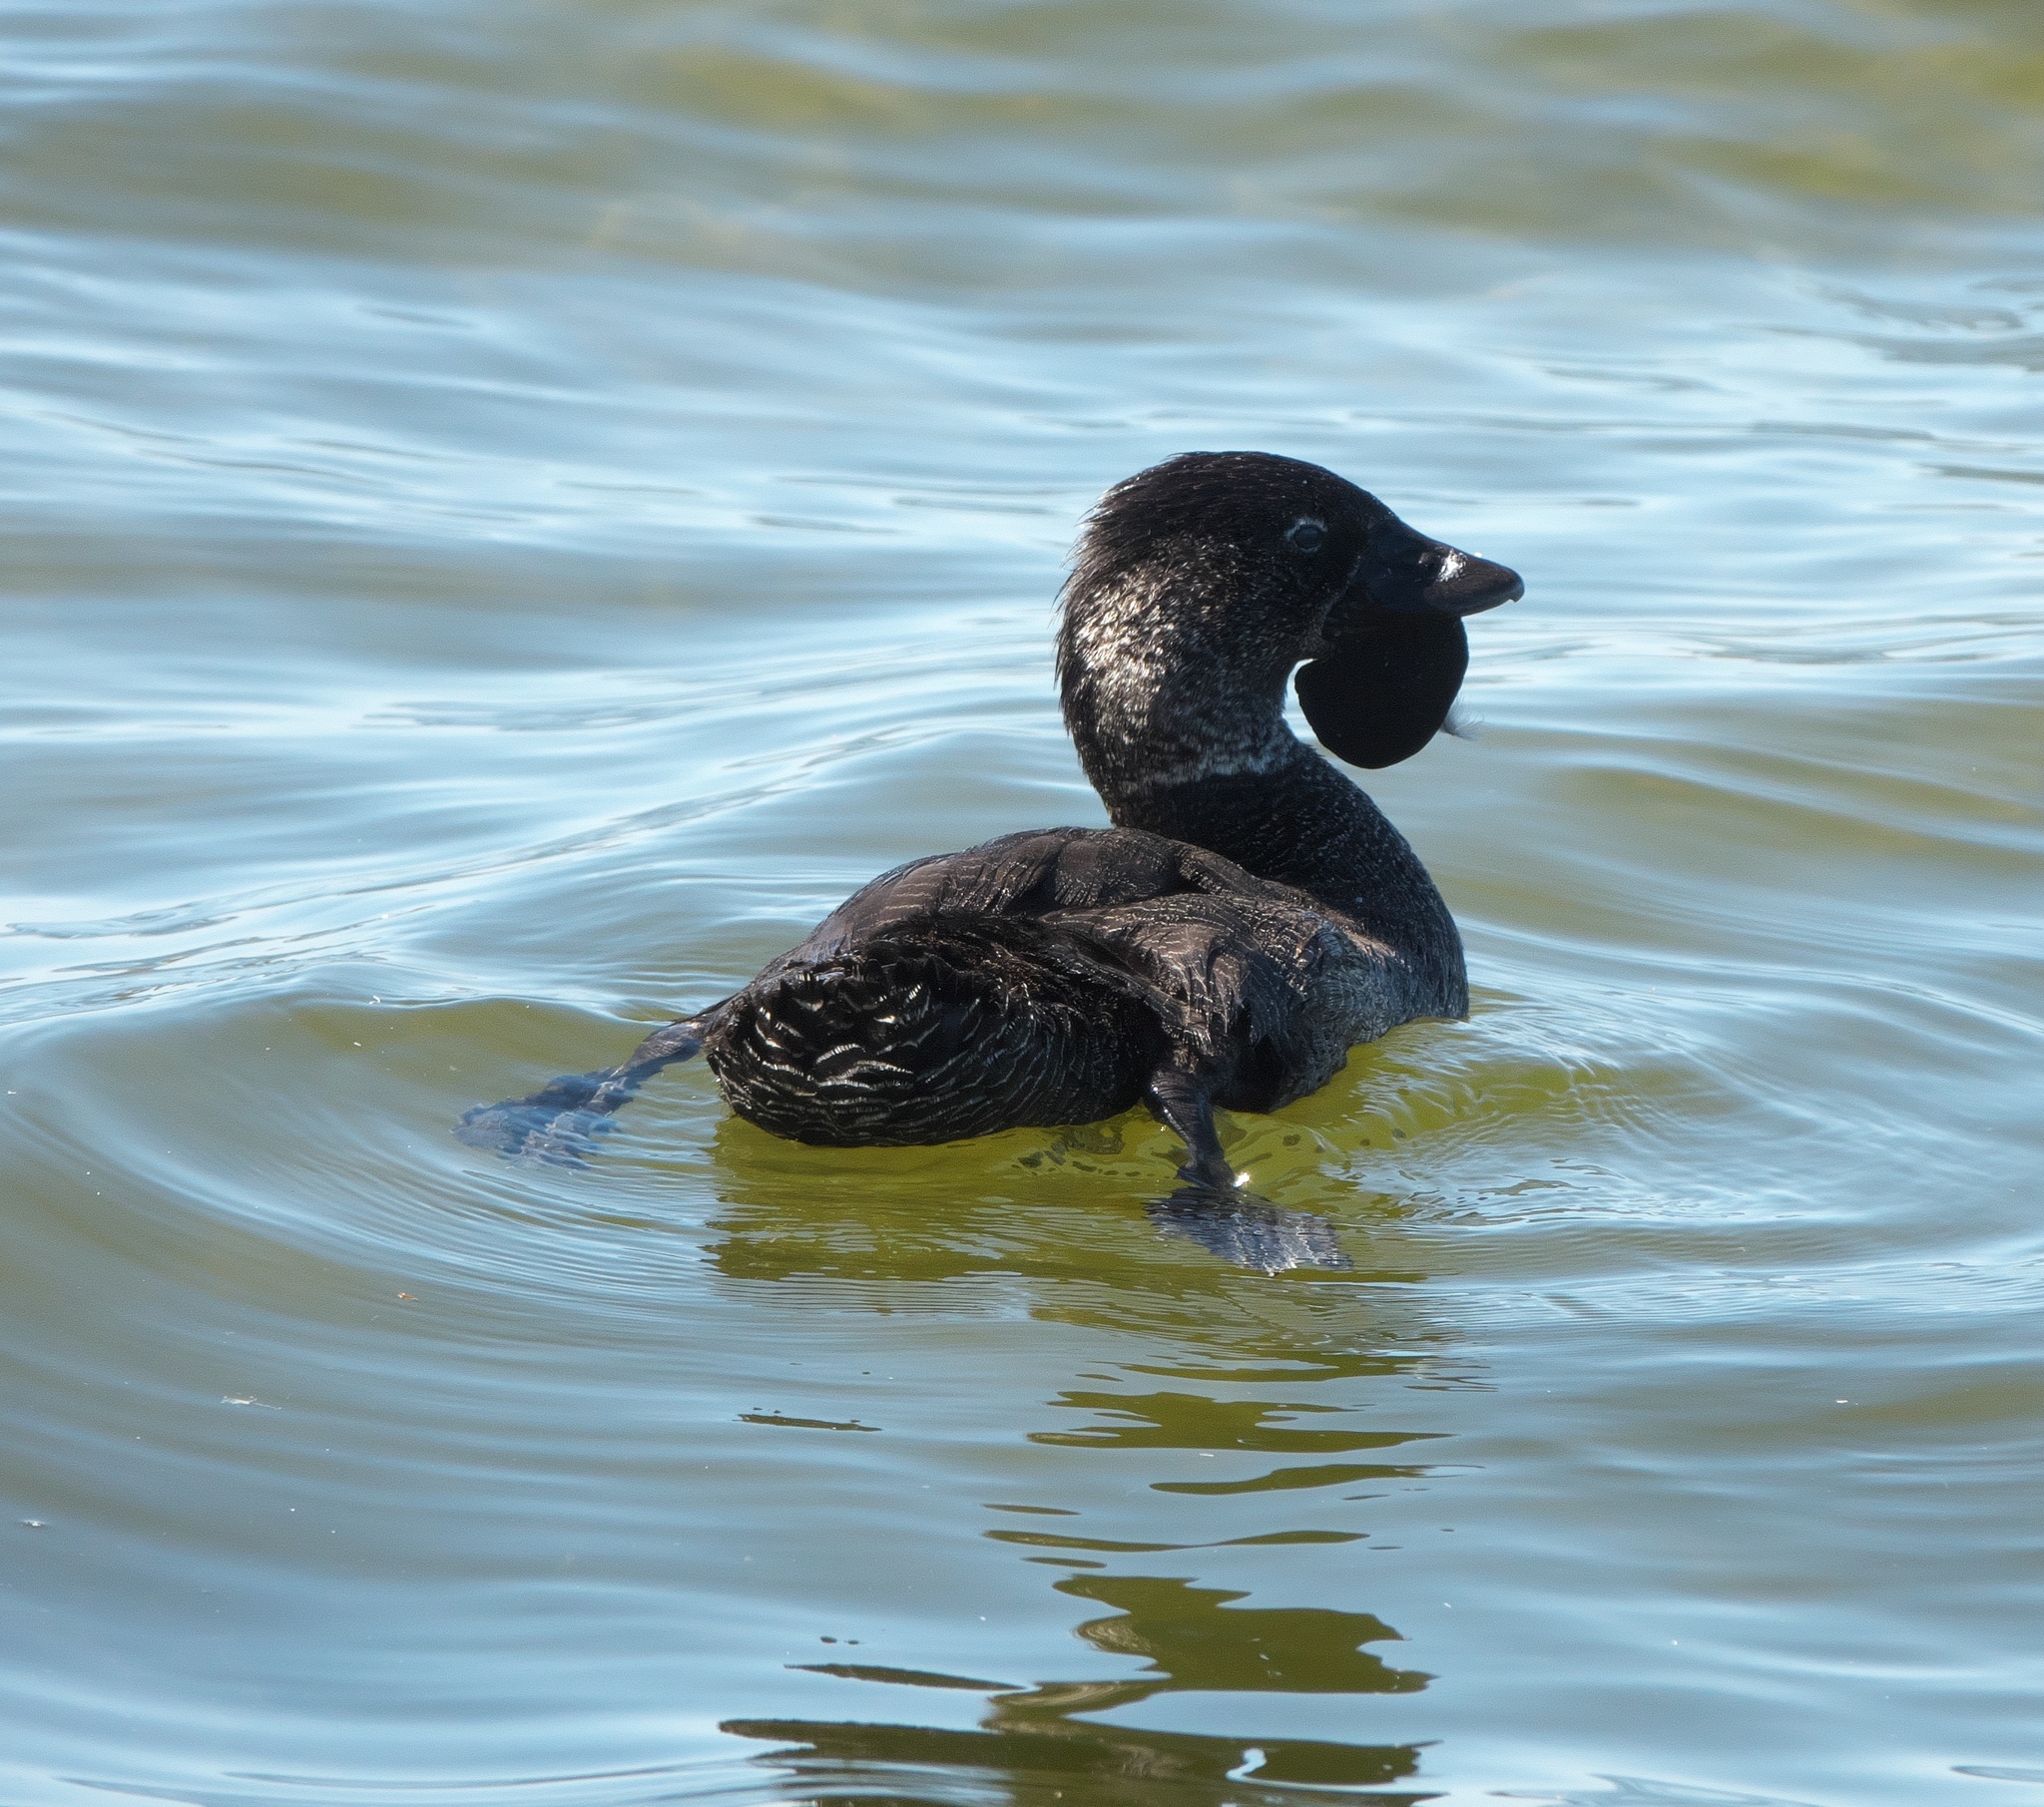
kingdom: Animalia
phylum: Chordata
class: Aves
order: Anseriformes
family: Anatidae
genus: Biziura
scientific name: Biziura lobata
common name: Musk duck
